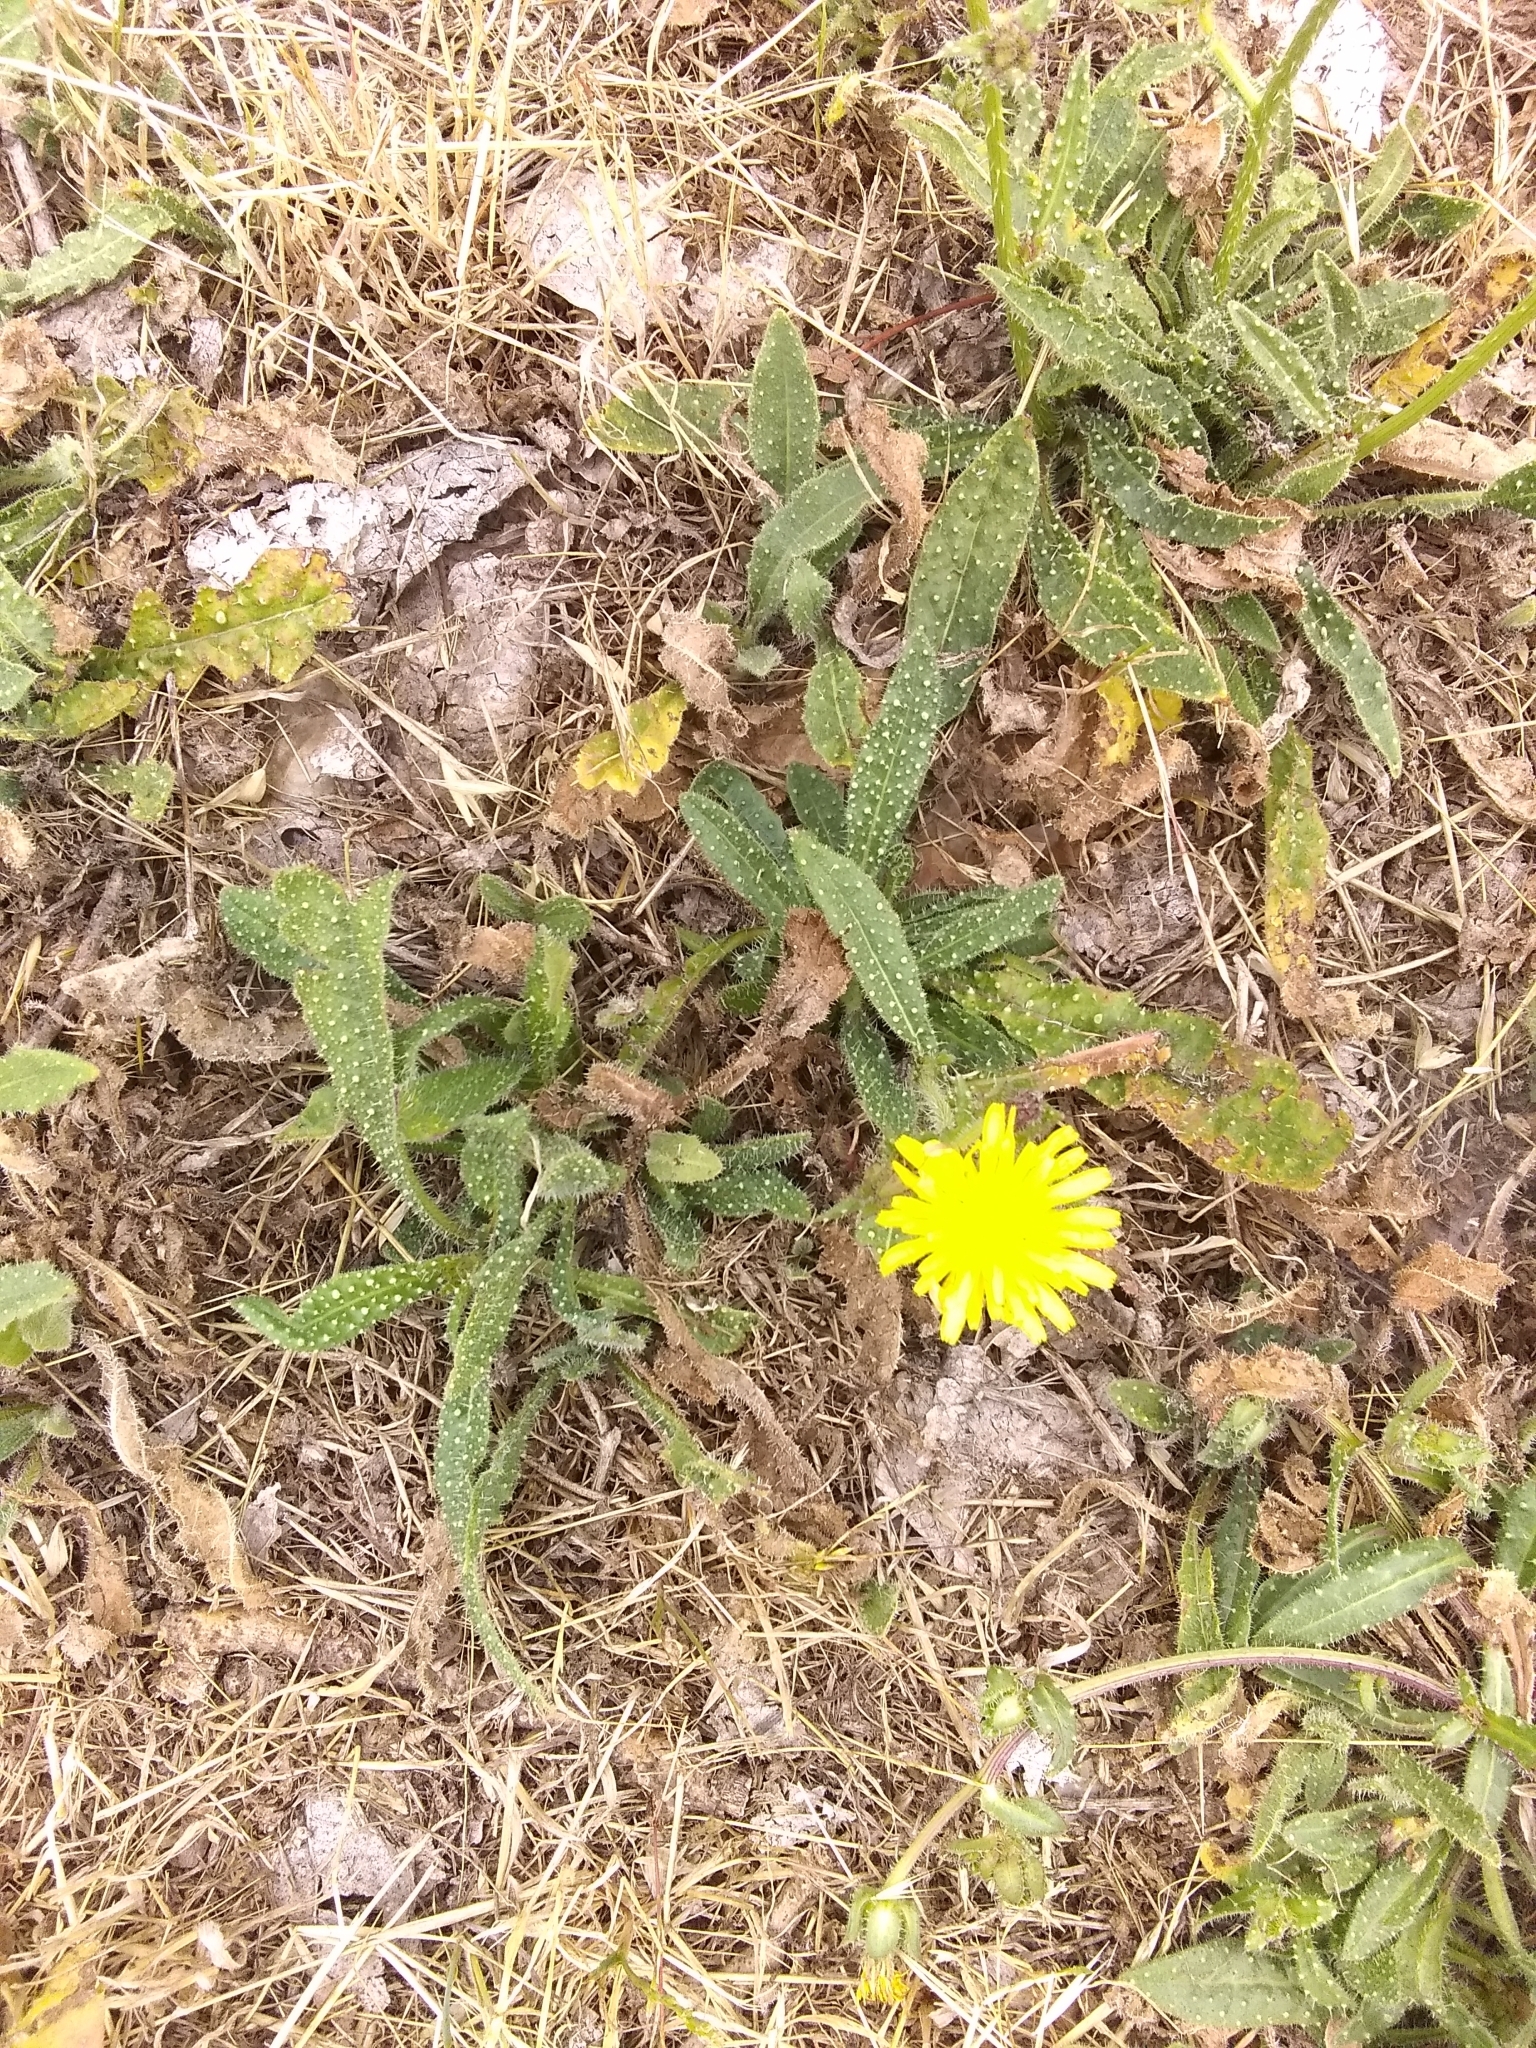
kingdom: Plantae
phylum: Tracheophyta
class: Magnoliopsida
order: Asterales
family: Asteraceae
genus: Helminthotheca
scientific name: Helminthotheca echioides
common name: Ox-tongue
